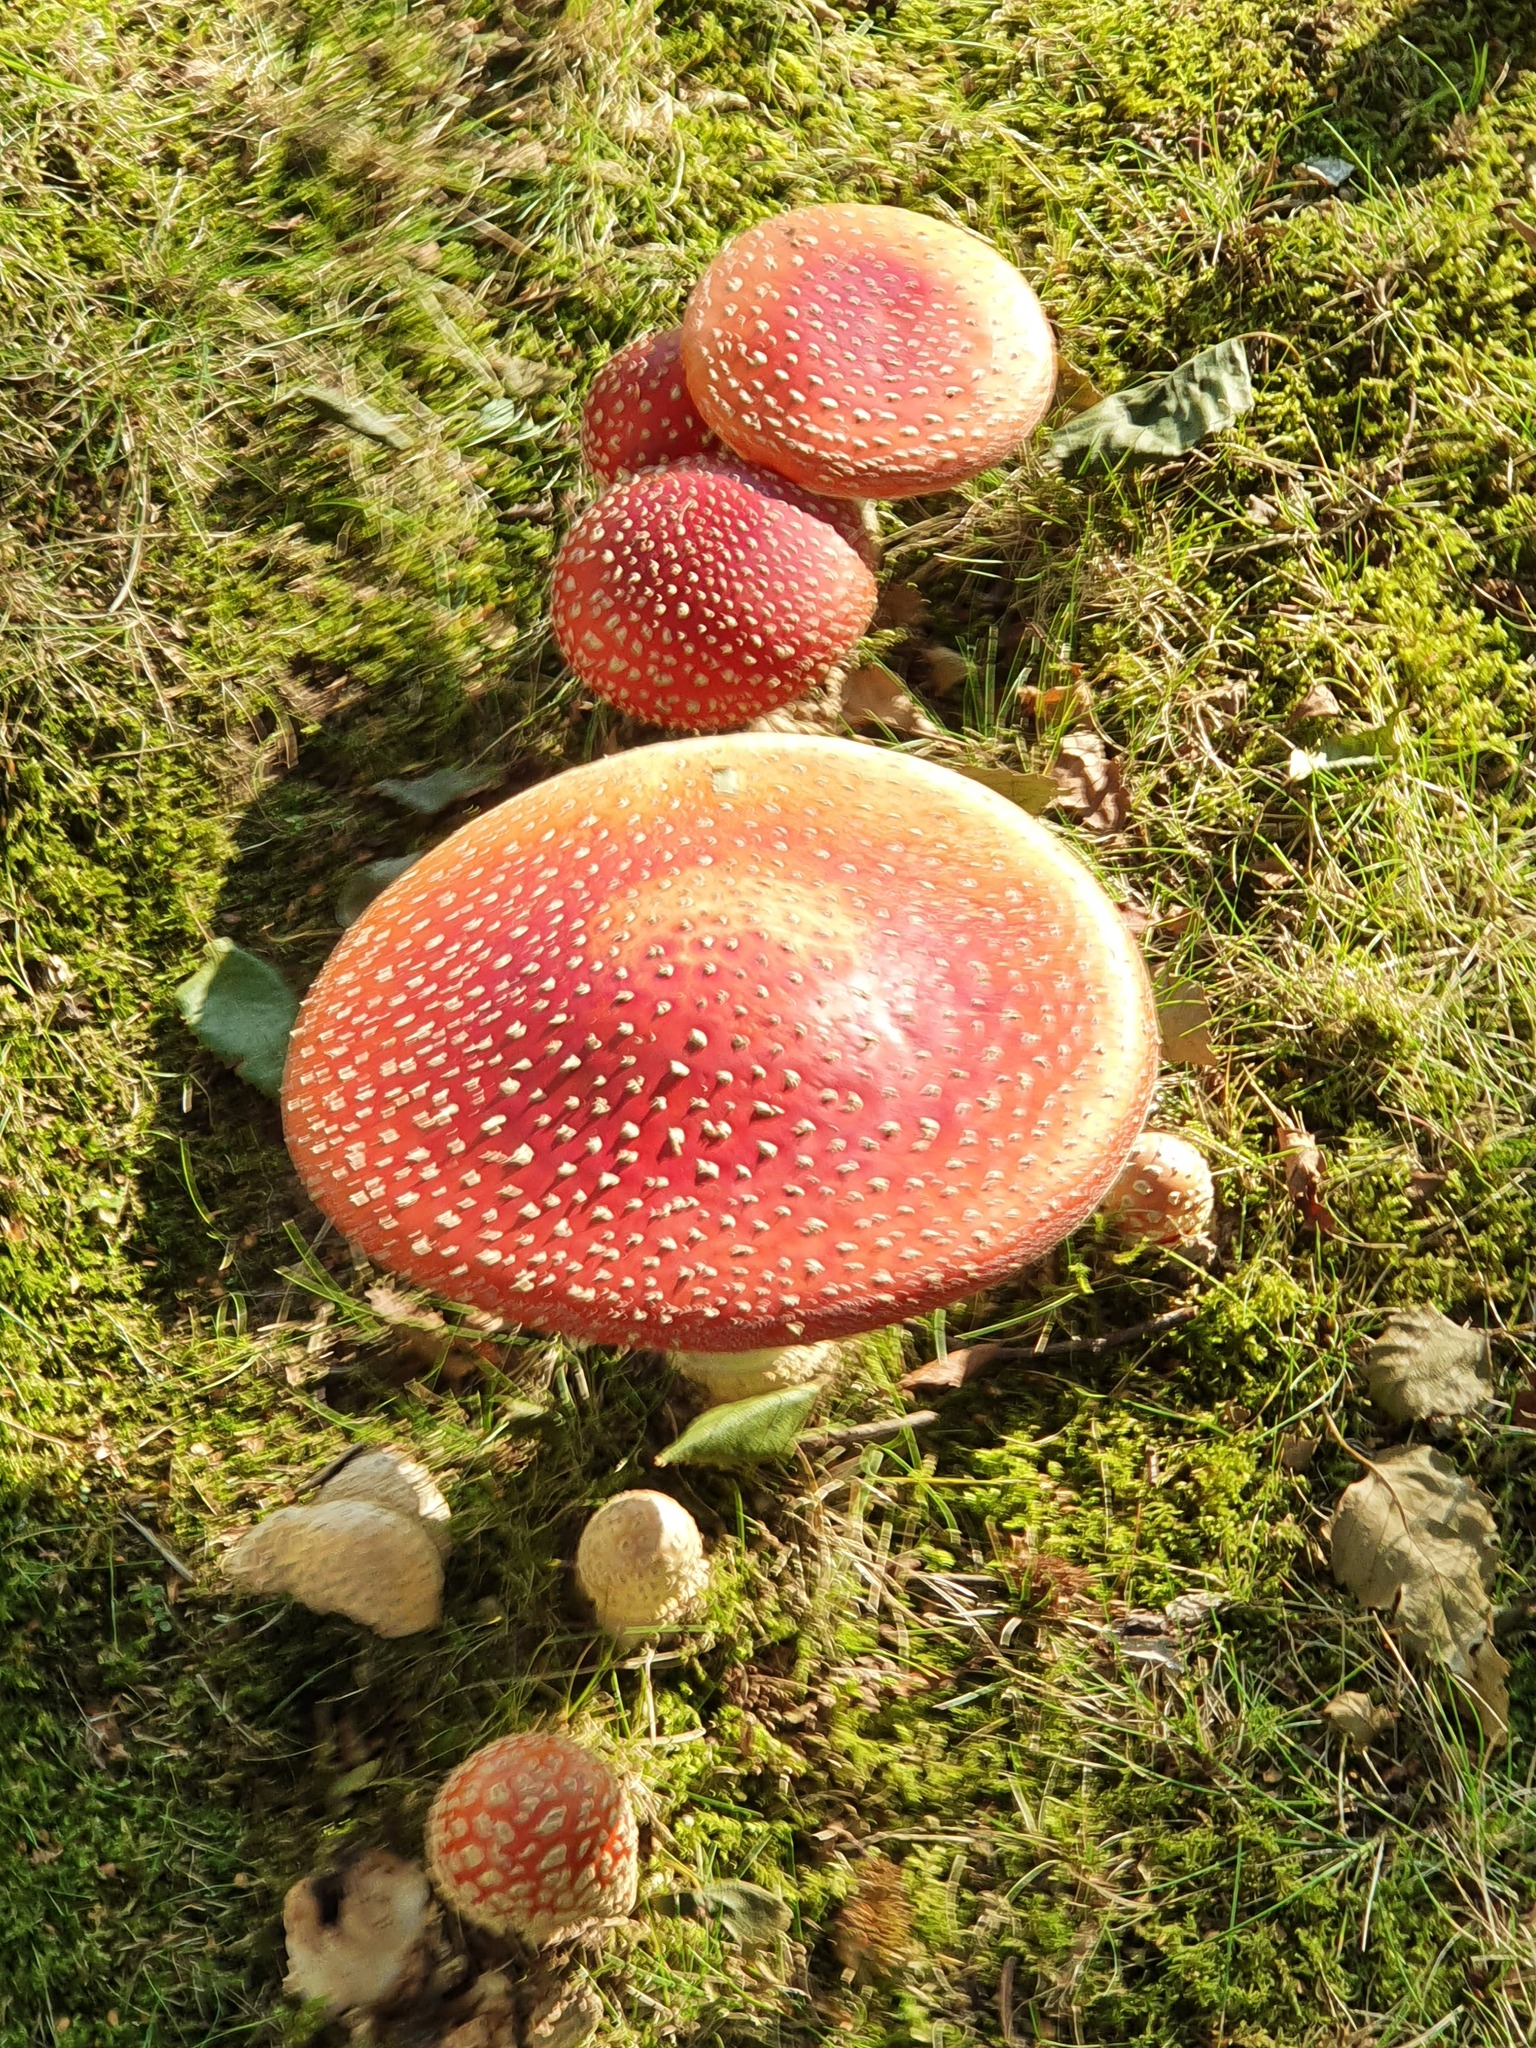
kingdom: Fungi
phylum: Basidiomycota
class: Agaricomycetes
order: Agaricales
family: Amanitaceae
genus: Amanita
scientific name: Amanita muscaria
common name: Fly agaric
